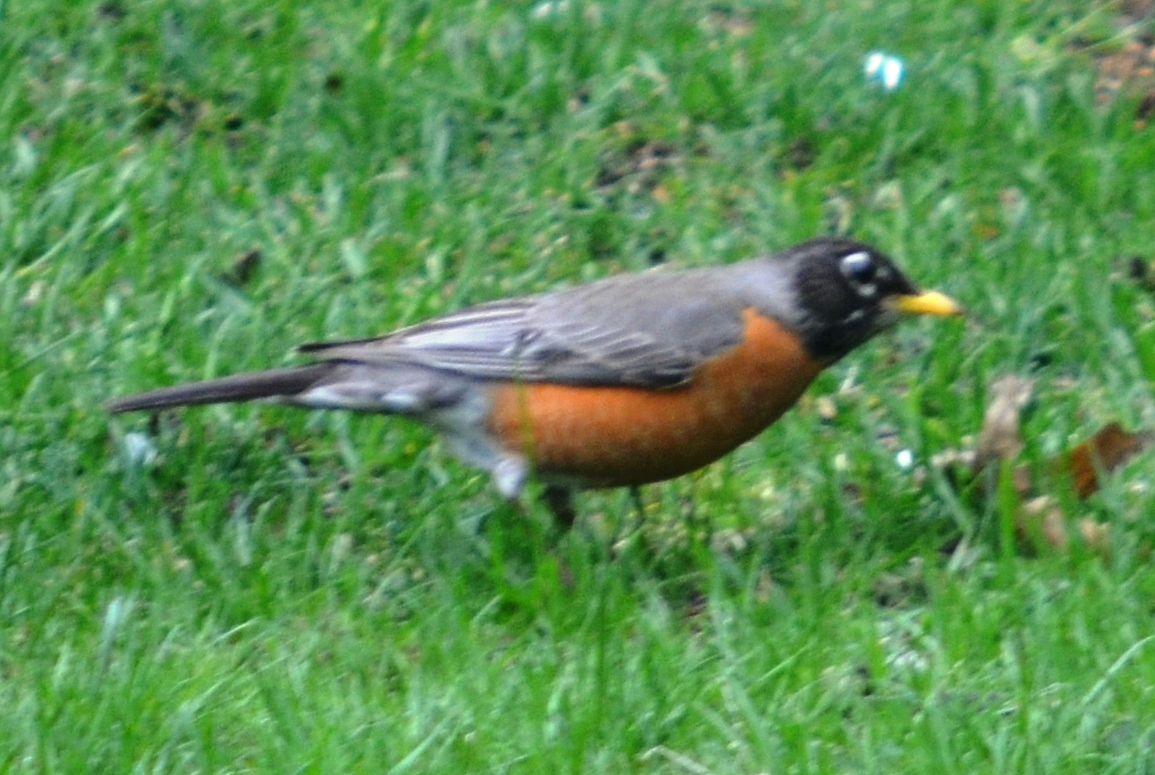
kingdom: Animalia
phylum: Chordata
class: Aves
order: Passeriformes
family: Turdidae
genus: Turdus
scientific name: Turdus migratorius
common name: American robin
